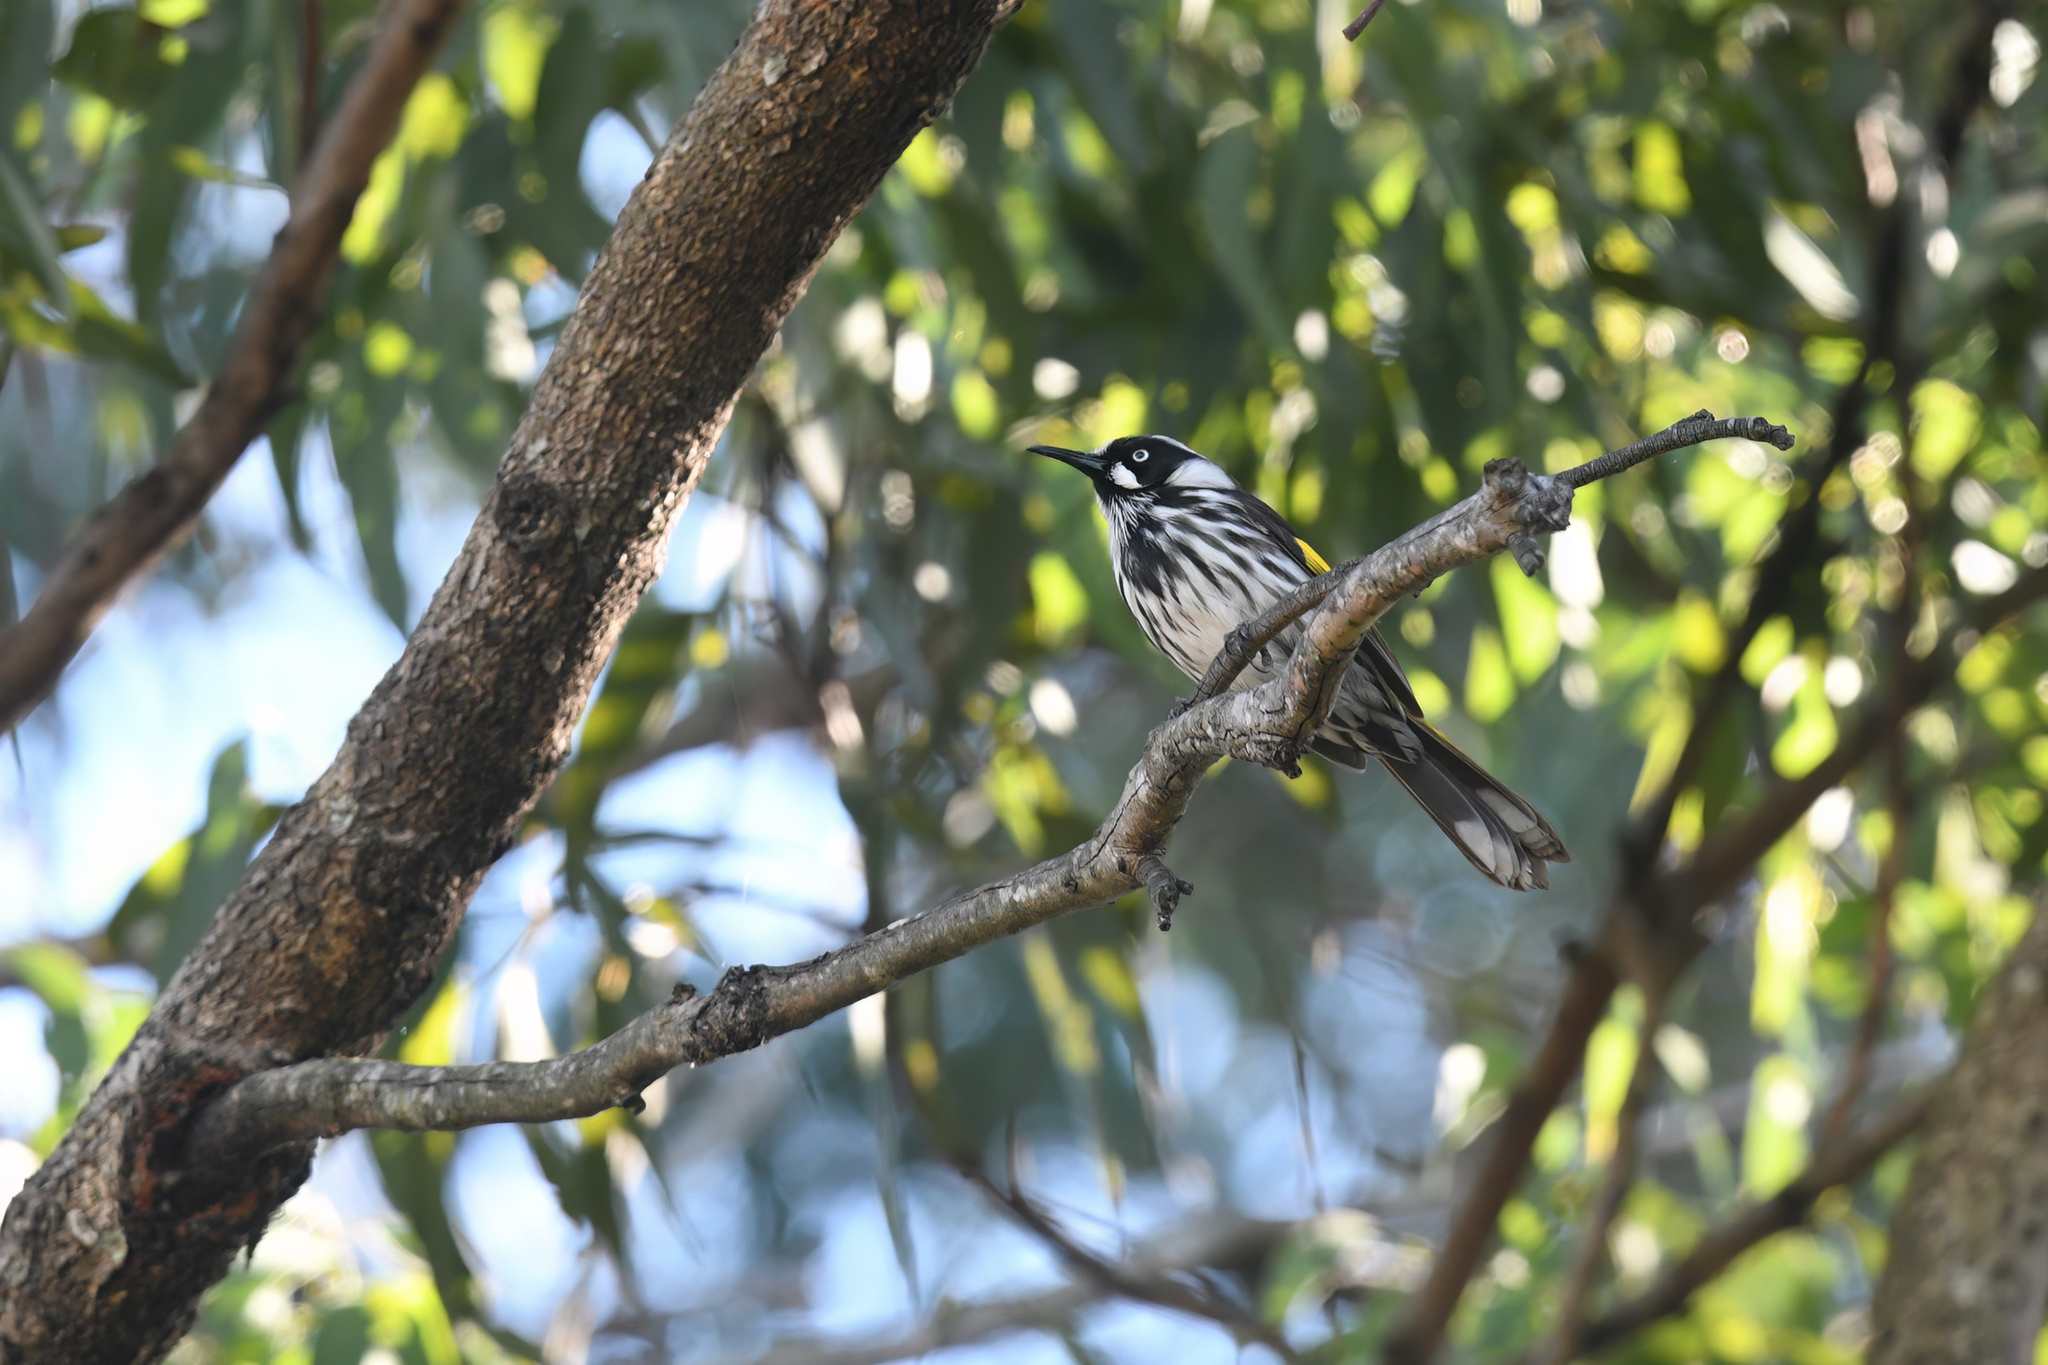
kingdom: Animalia
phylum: Chordata
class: Aves
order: Passeriformes
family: Meliphagidae
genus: Phylidonyris
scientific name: Phylidonyris novaehollandiae
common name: New holland honeyeater
